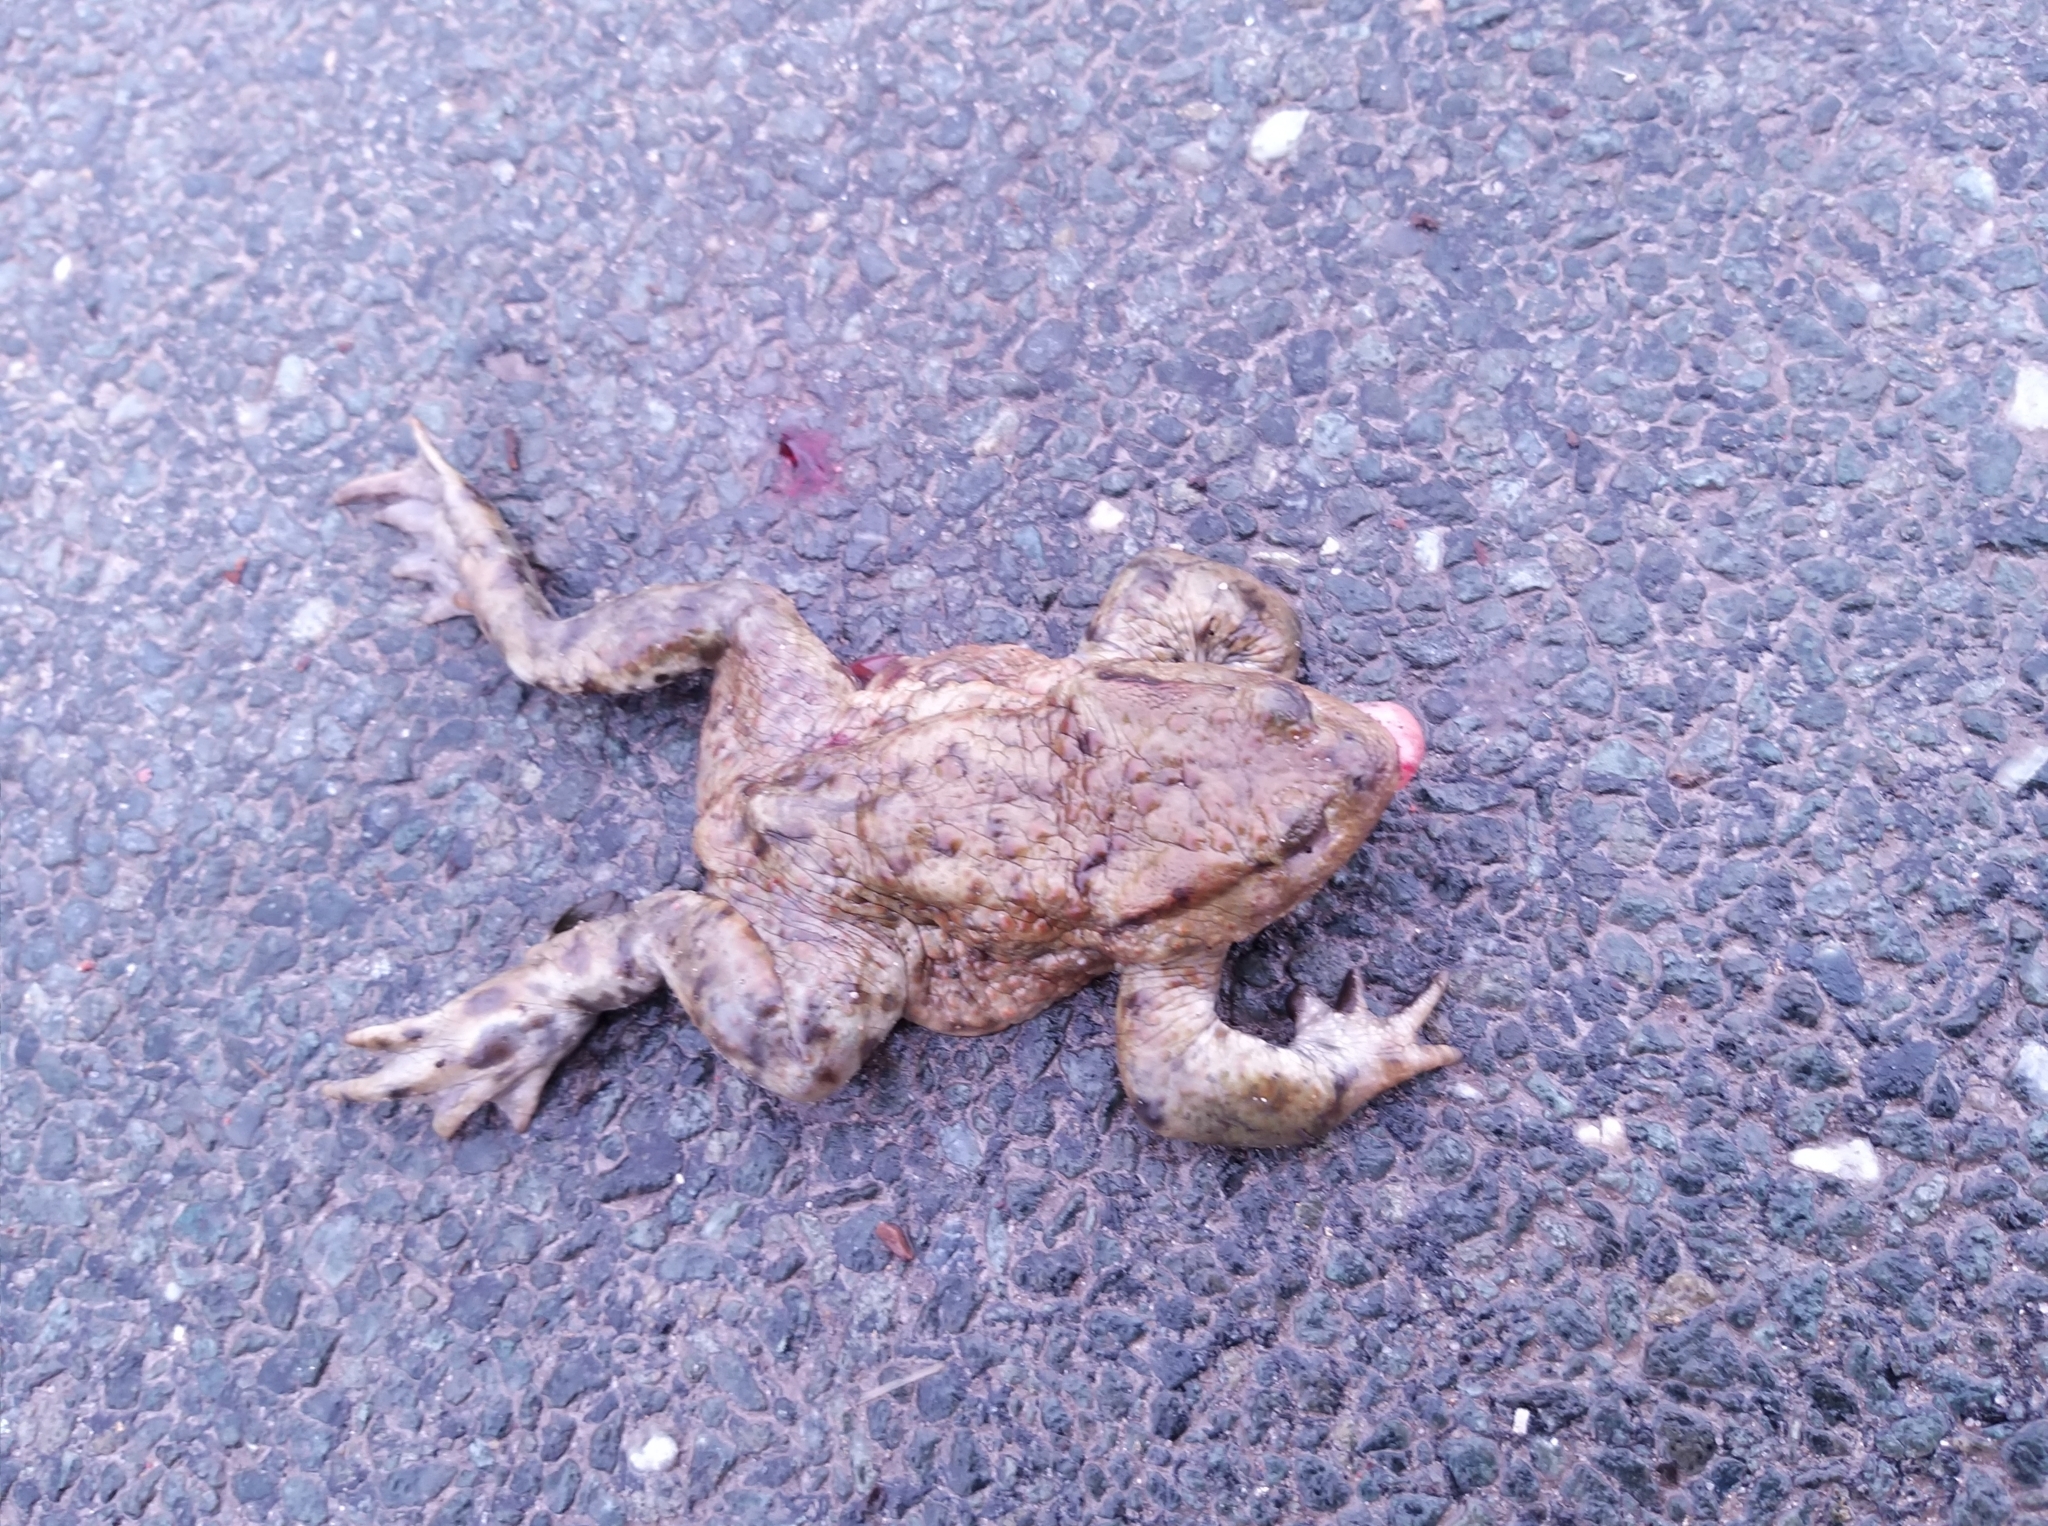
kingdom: Animalia
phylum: Chordata
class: Amphibia
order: Anura
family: Bufonidae
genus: Bufo
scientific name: Bufo bufo
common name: Common toad
